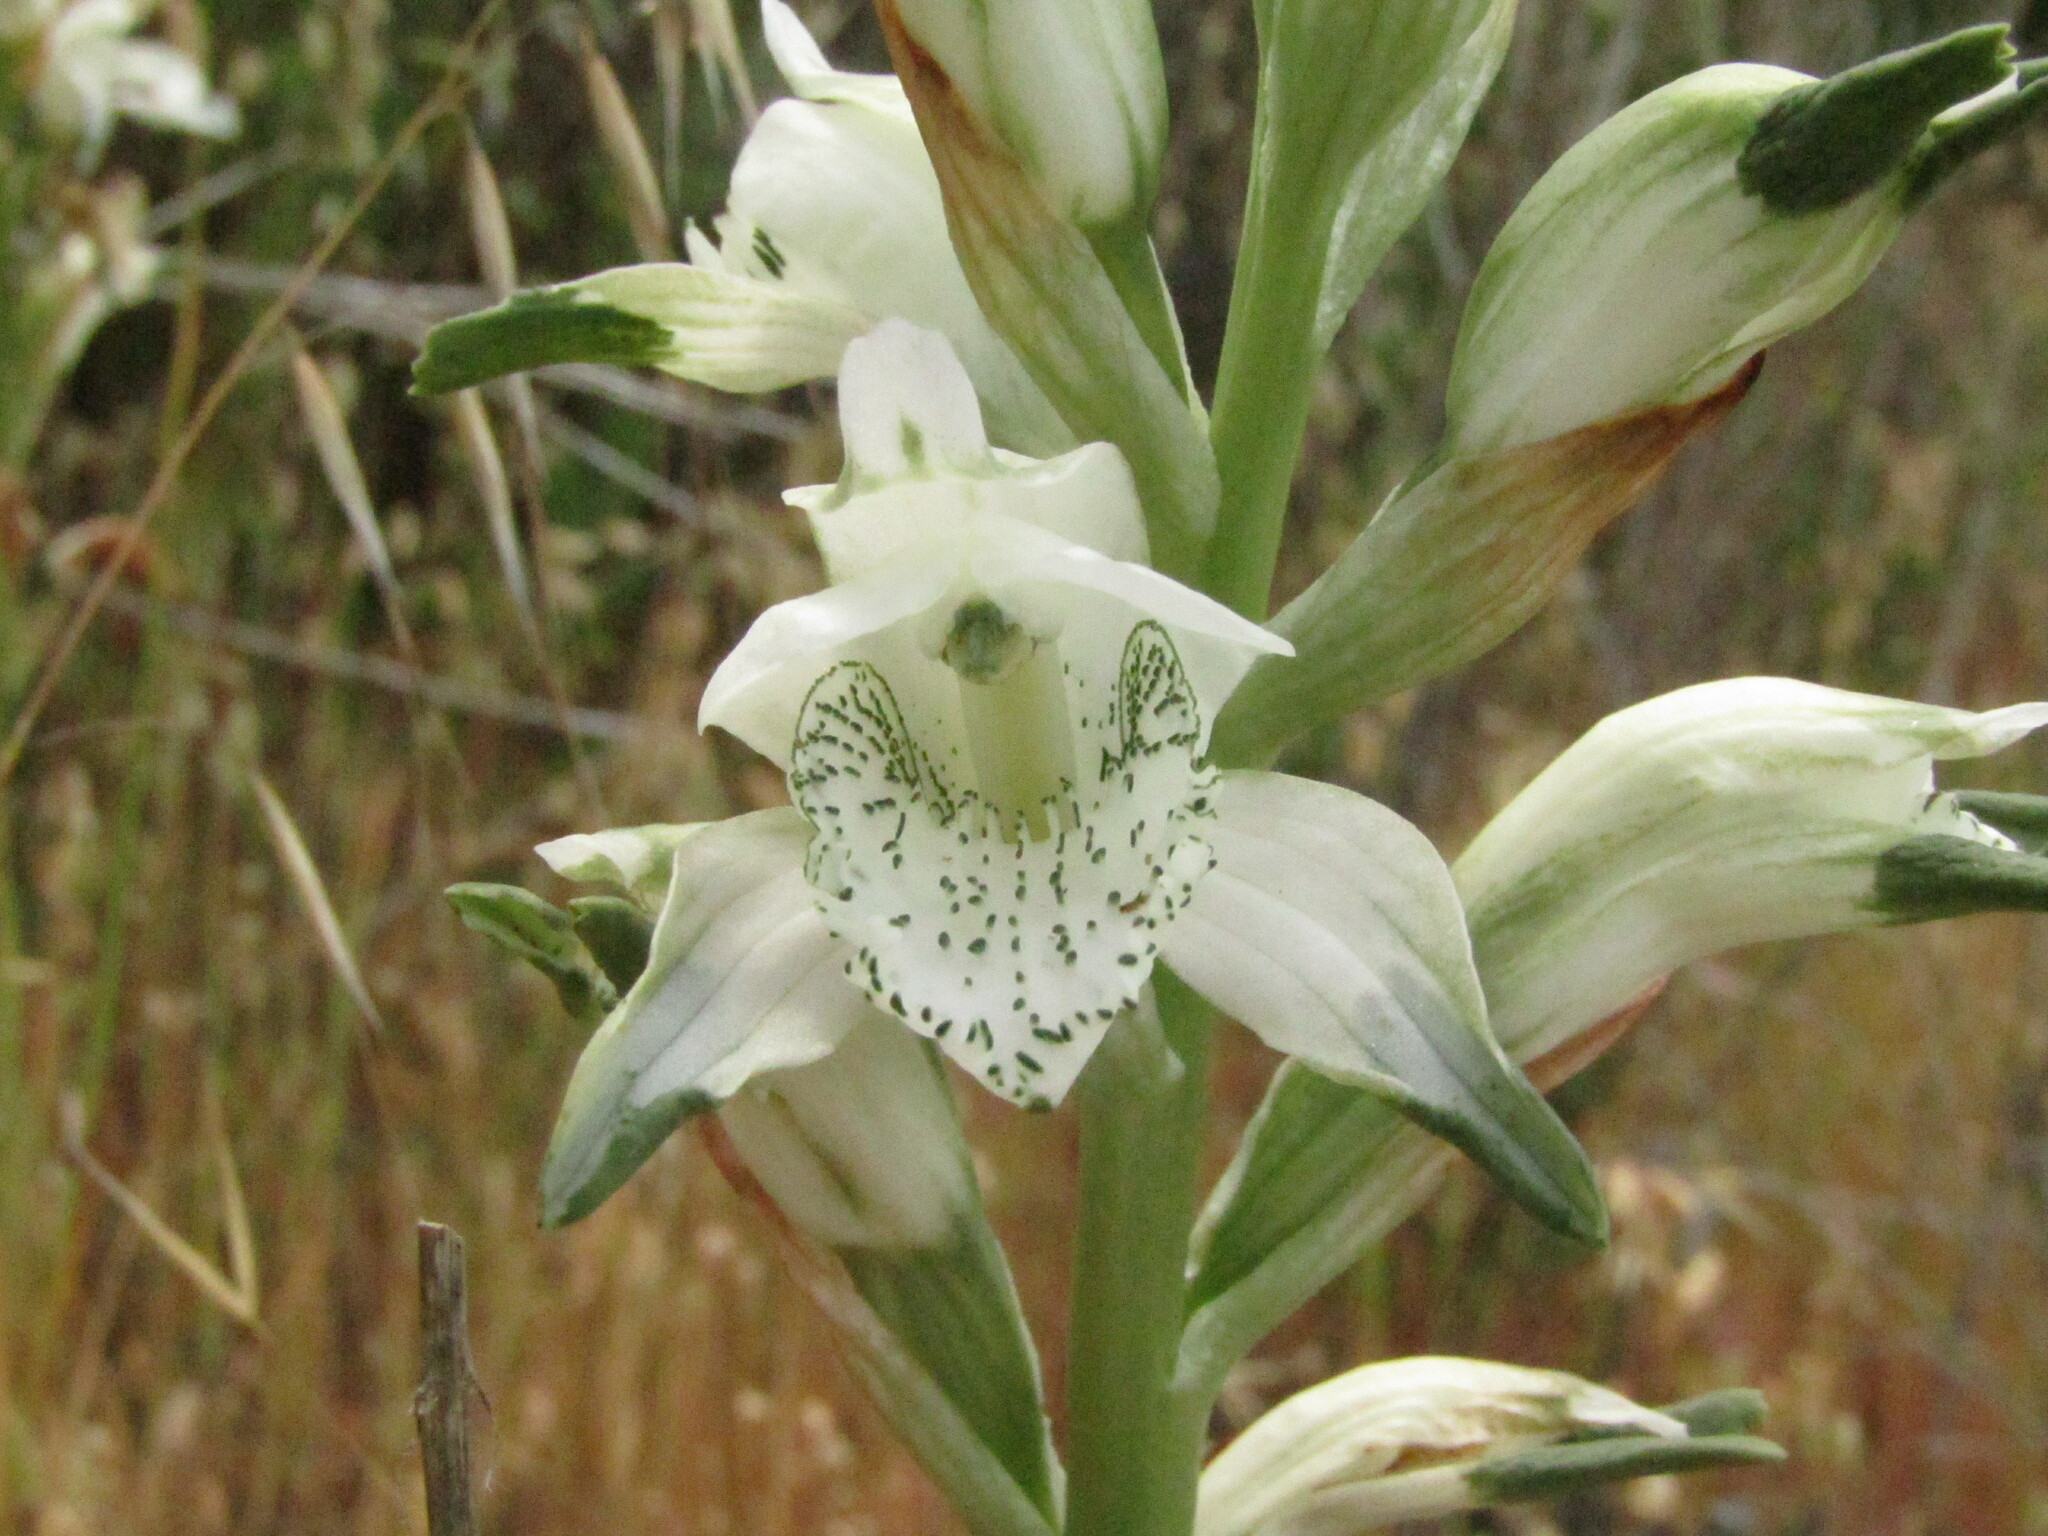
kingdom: Plantae
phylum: Tracheophyta
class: Liliopsida
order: Asparagales
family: Orchidaceae
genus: Chloraea
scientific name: Chloraea piquichen
